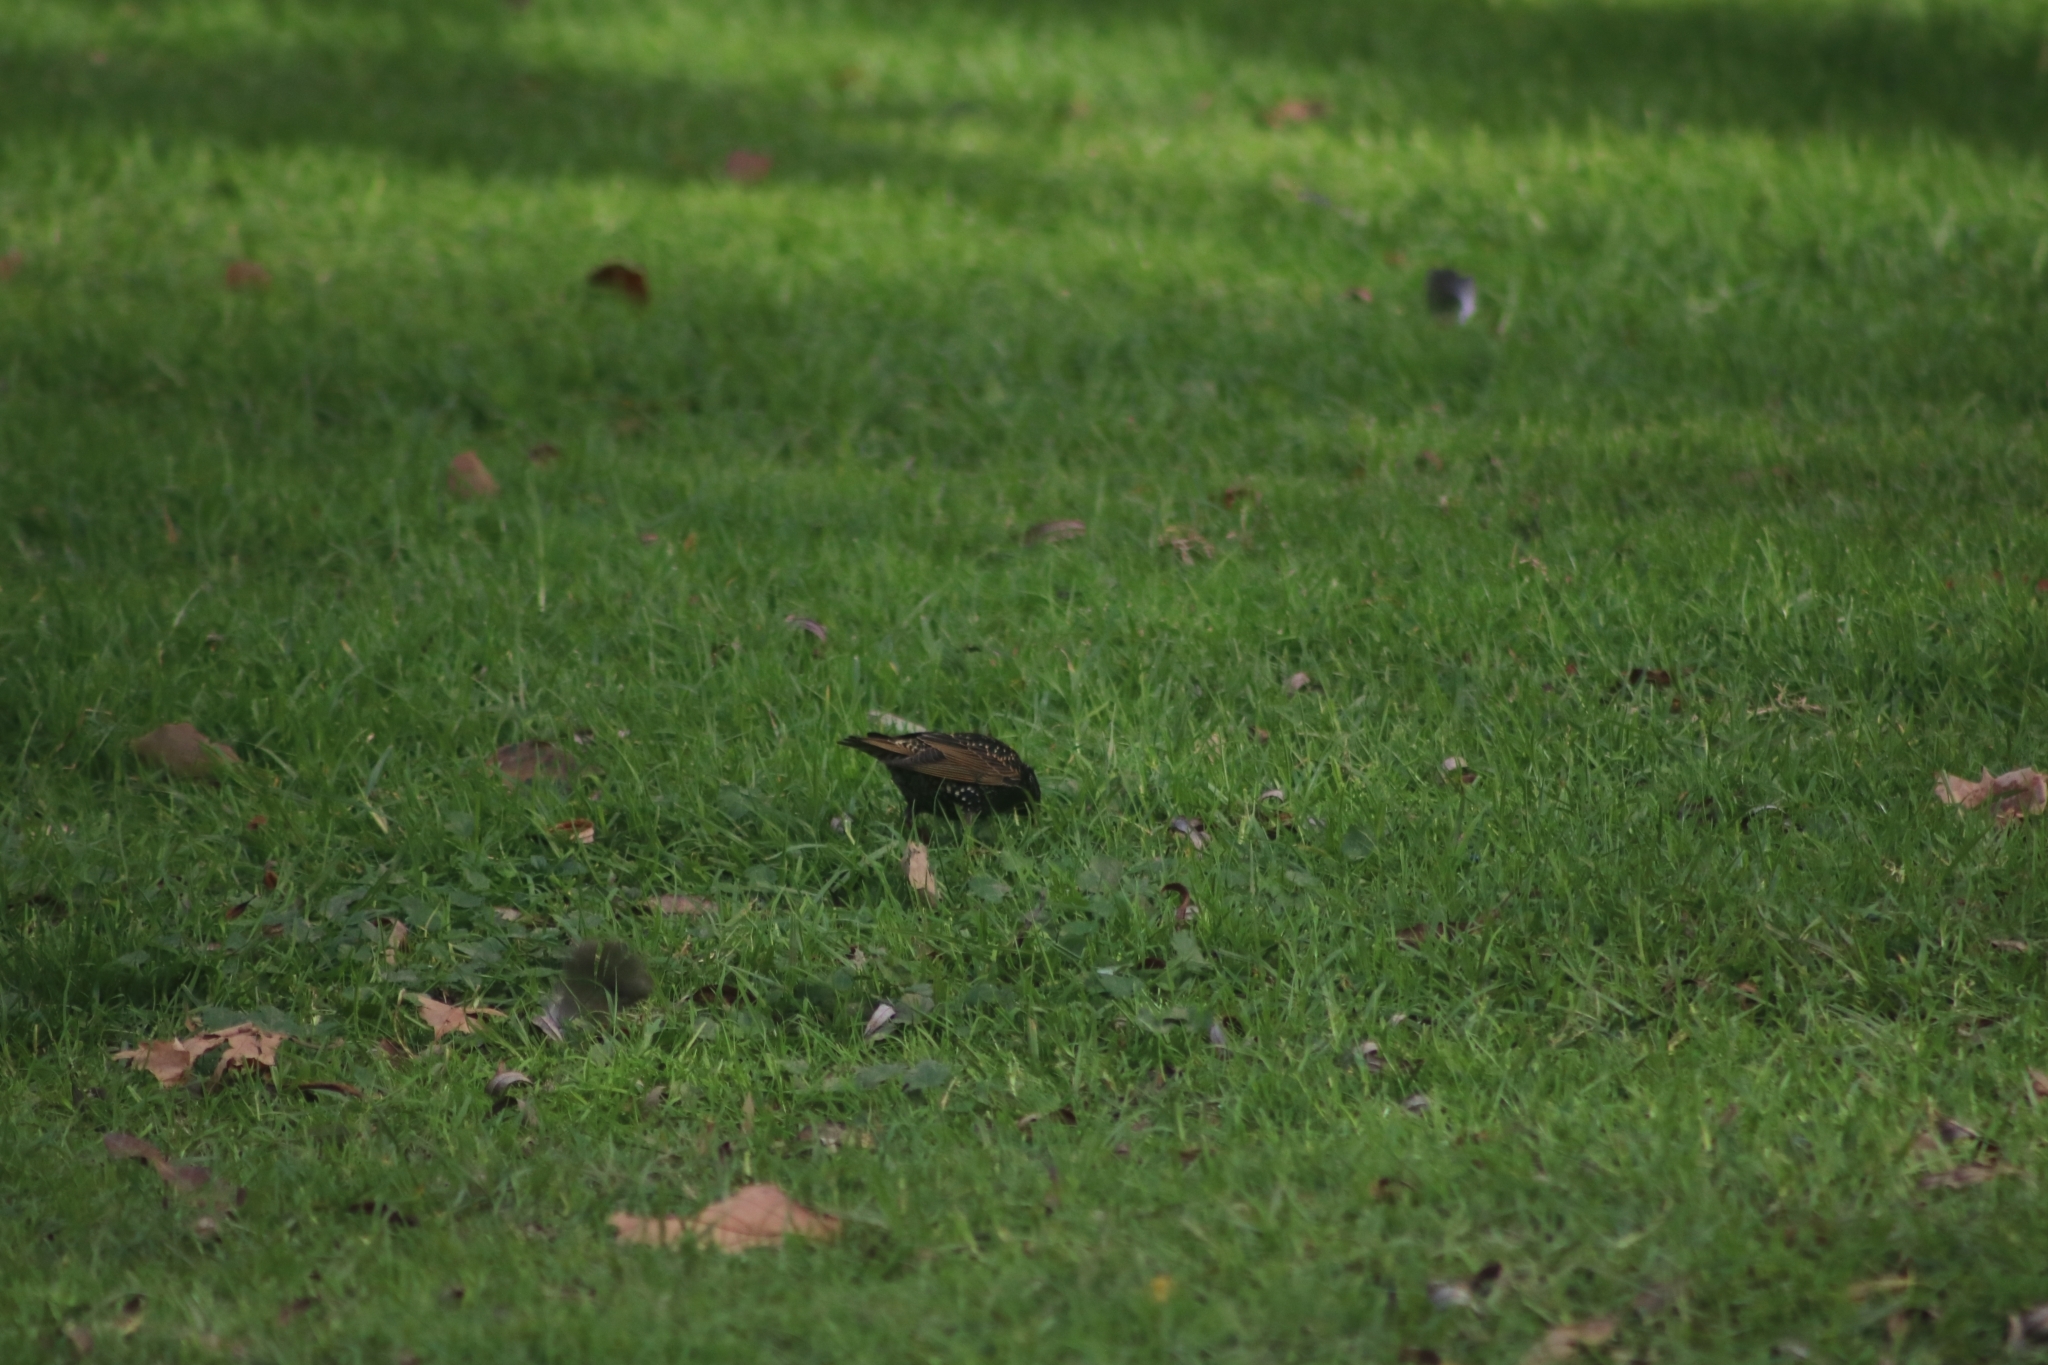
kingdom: Animalia
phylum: Chordata
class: Aves
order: Passeriformes
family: Sturnidae
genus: Sturnus
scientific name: Sturnus vulgaris
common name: Common starling
